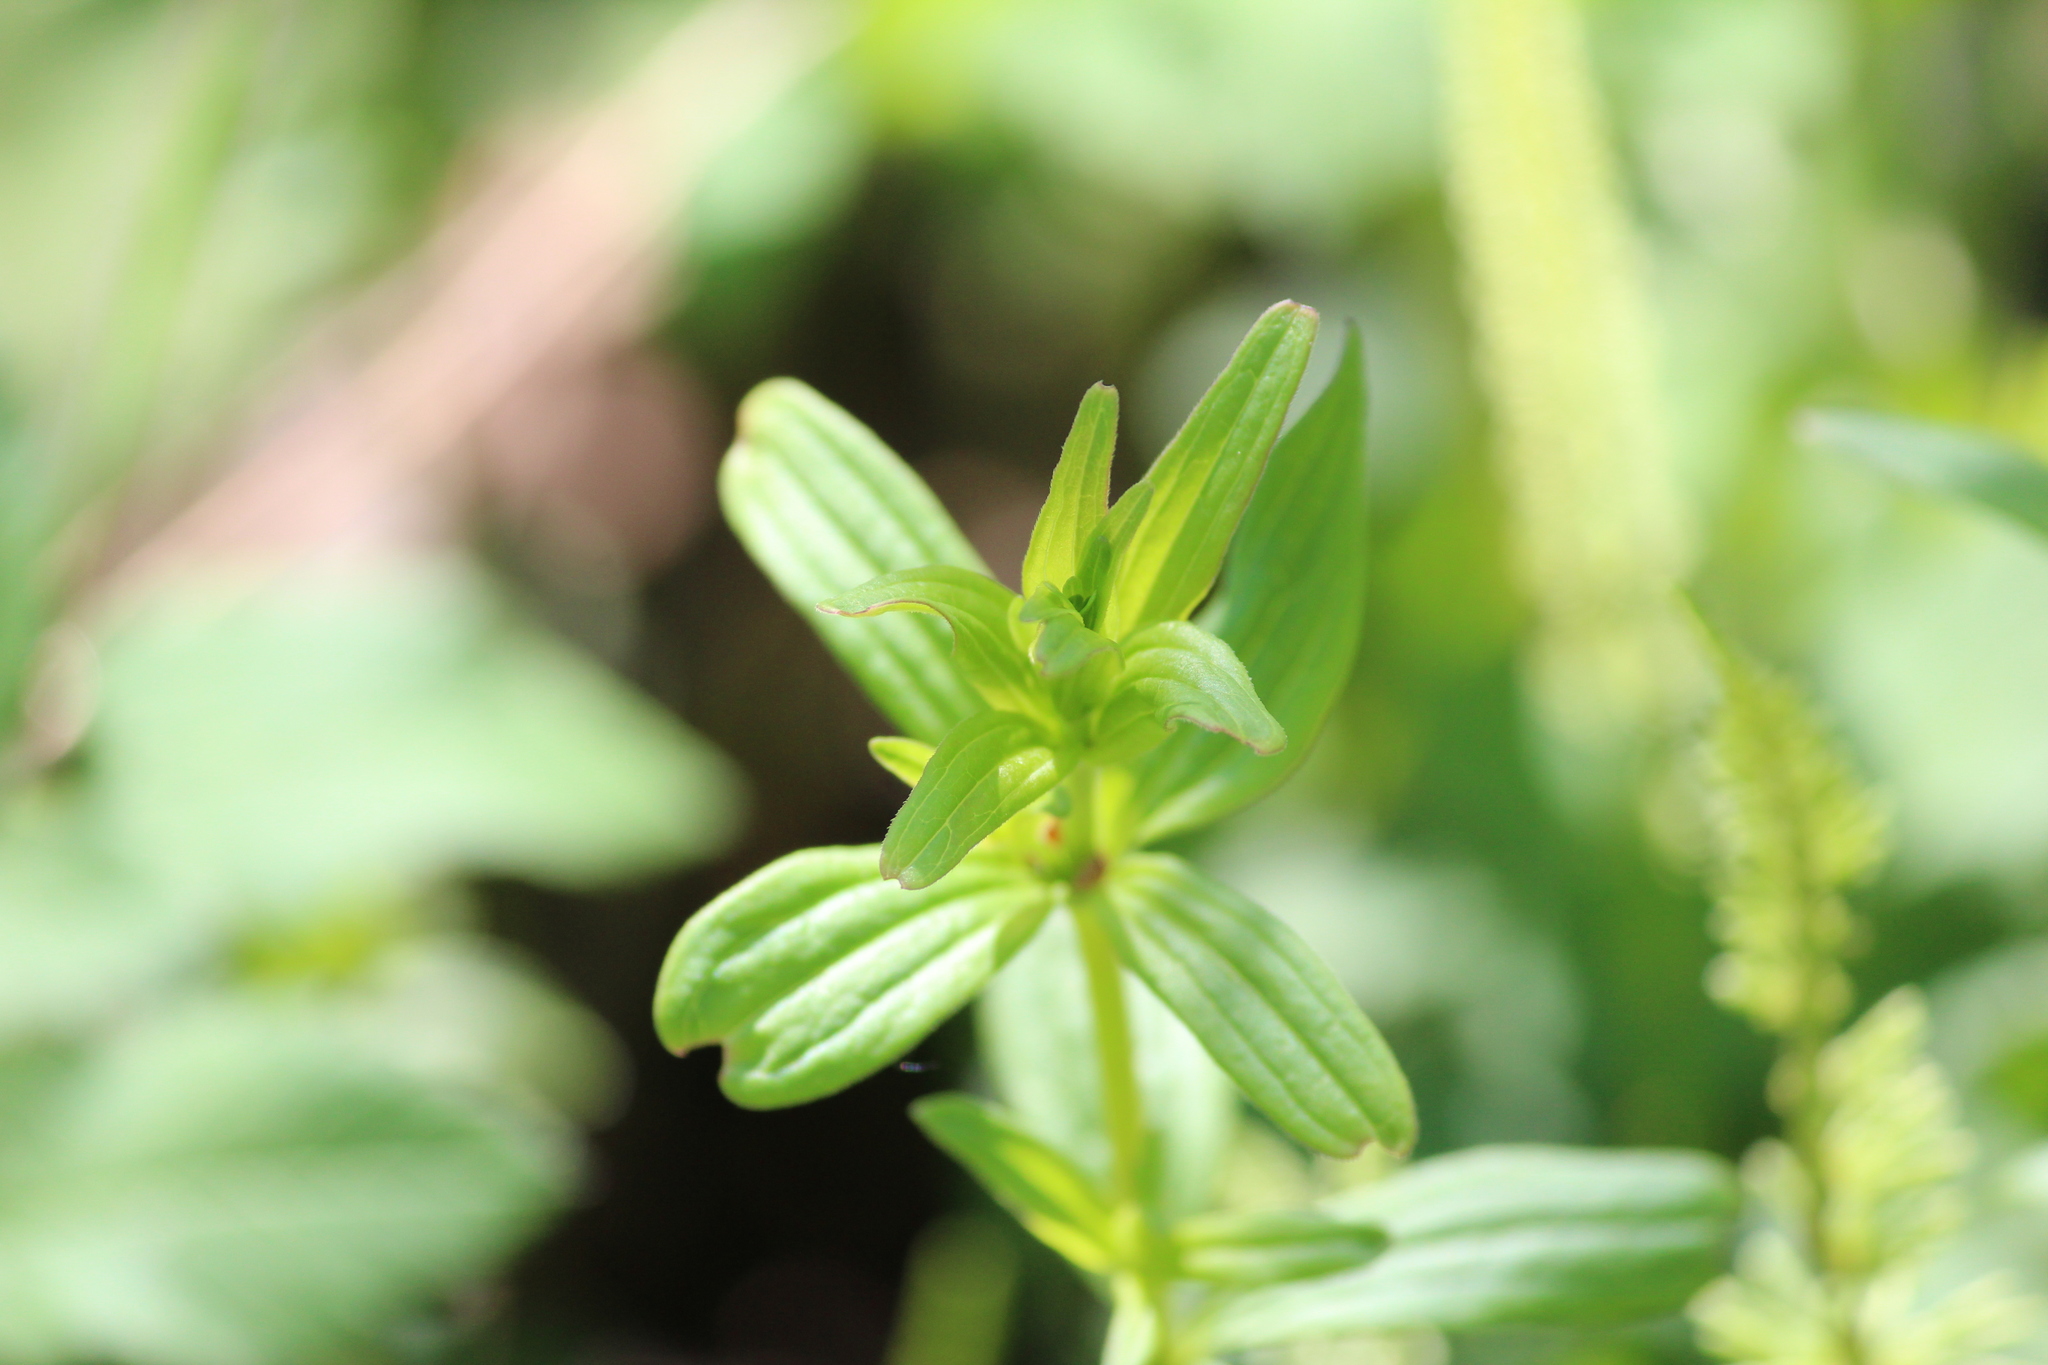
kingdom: Plantae
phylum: Tracheophyta
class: Magnoliopsida
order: Gentianales
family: Rubiaceae
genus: Galium
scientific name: Galium boreale
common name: Northern bedstraw
